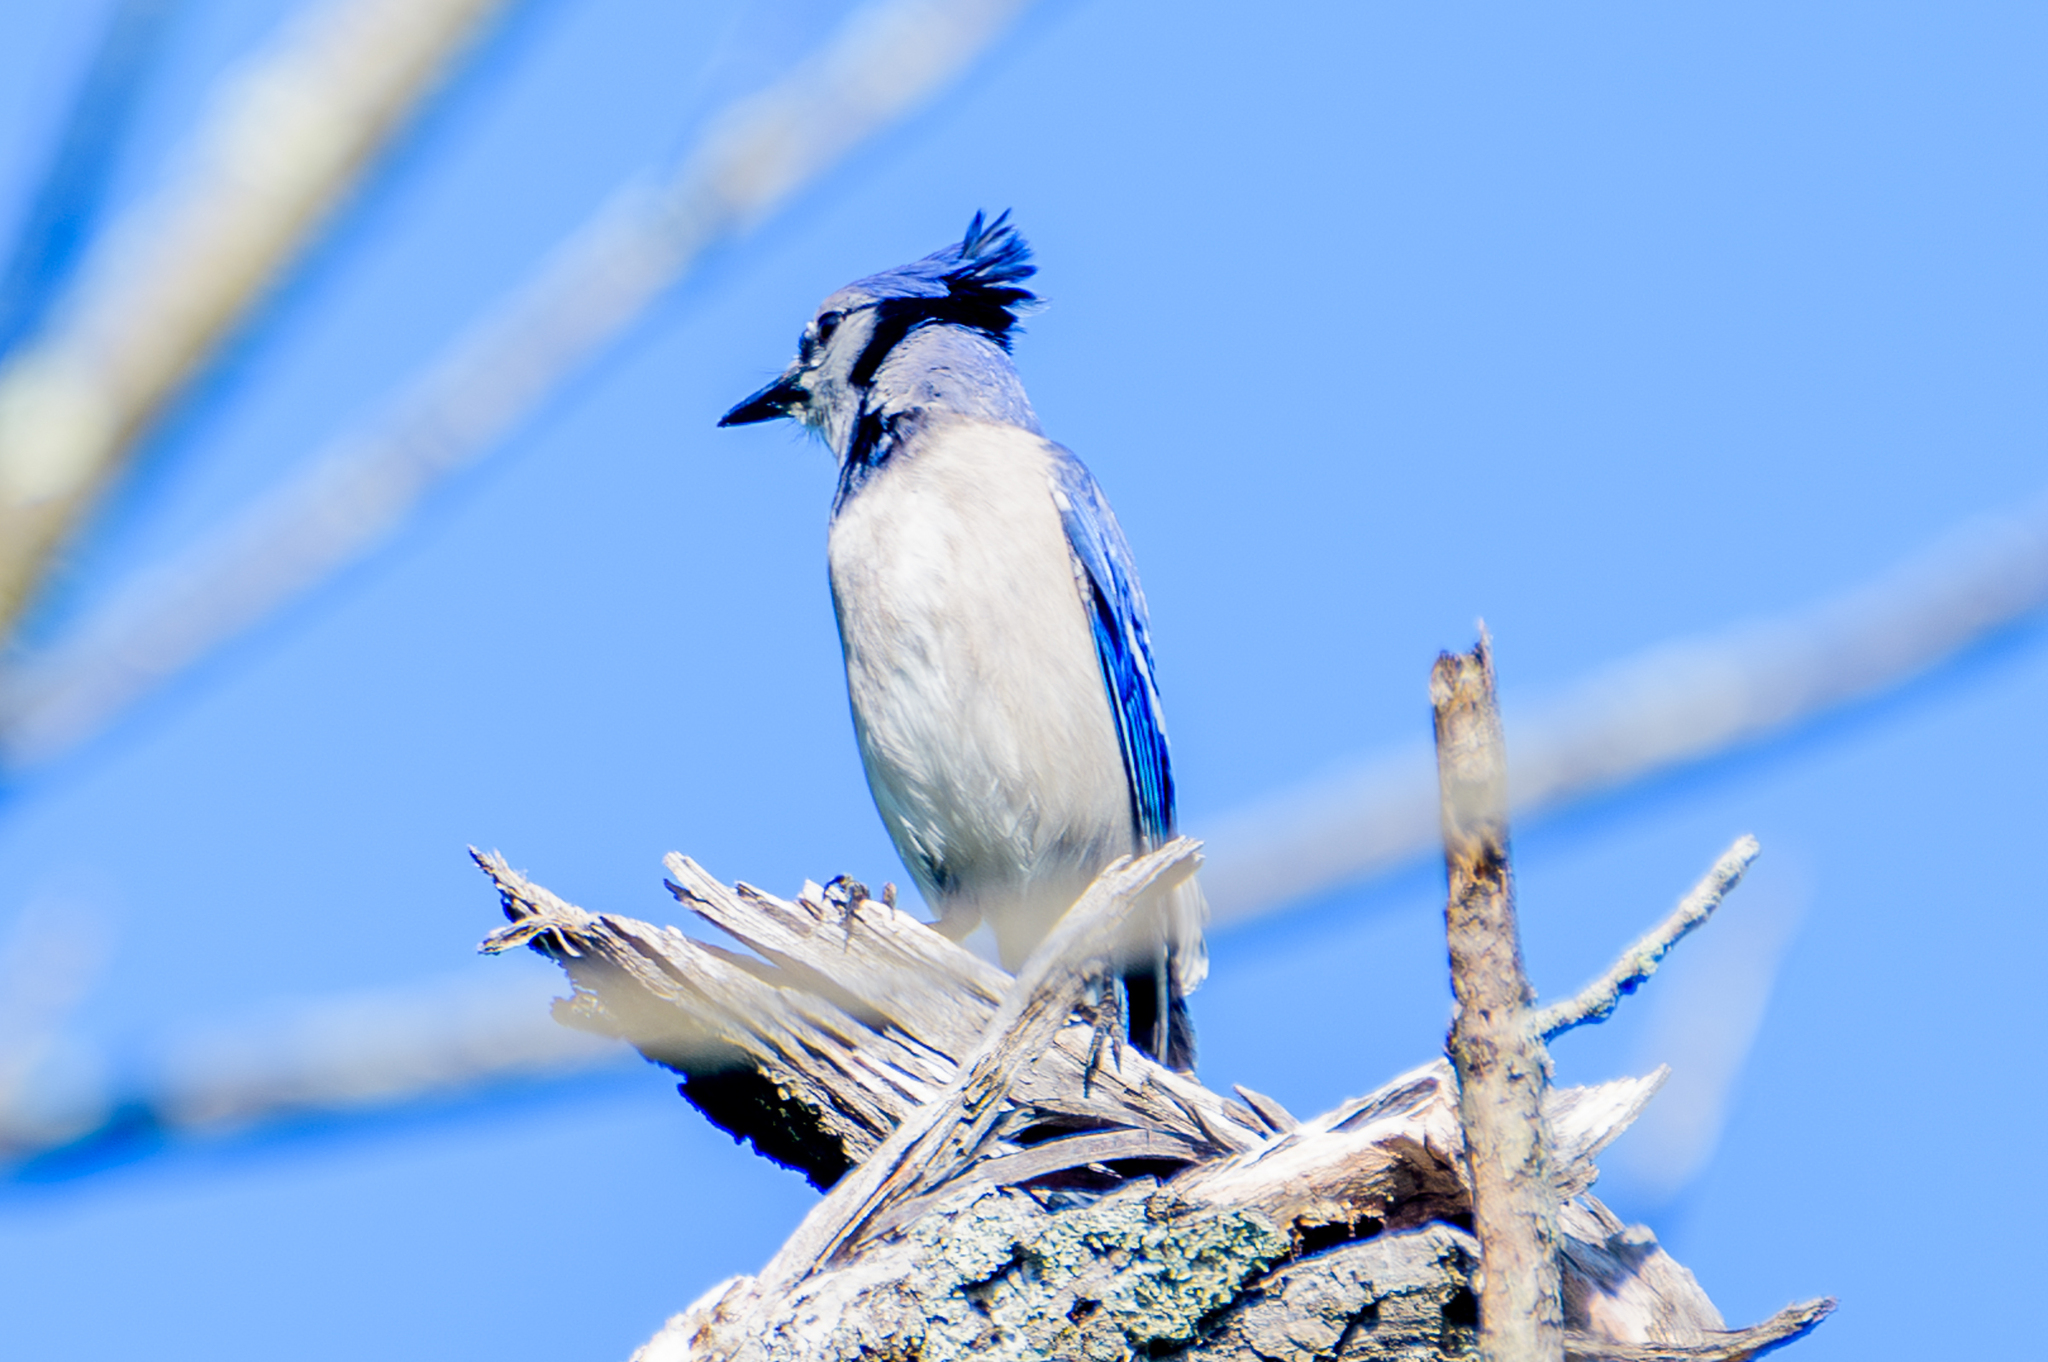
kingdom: Animalia
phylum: Chordata
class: Aves
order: Passeriformes
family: Corvidae
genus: Cyanocitta
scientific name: Cyanocitta cristata
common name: Blue jay
